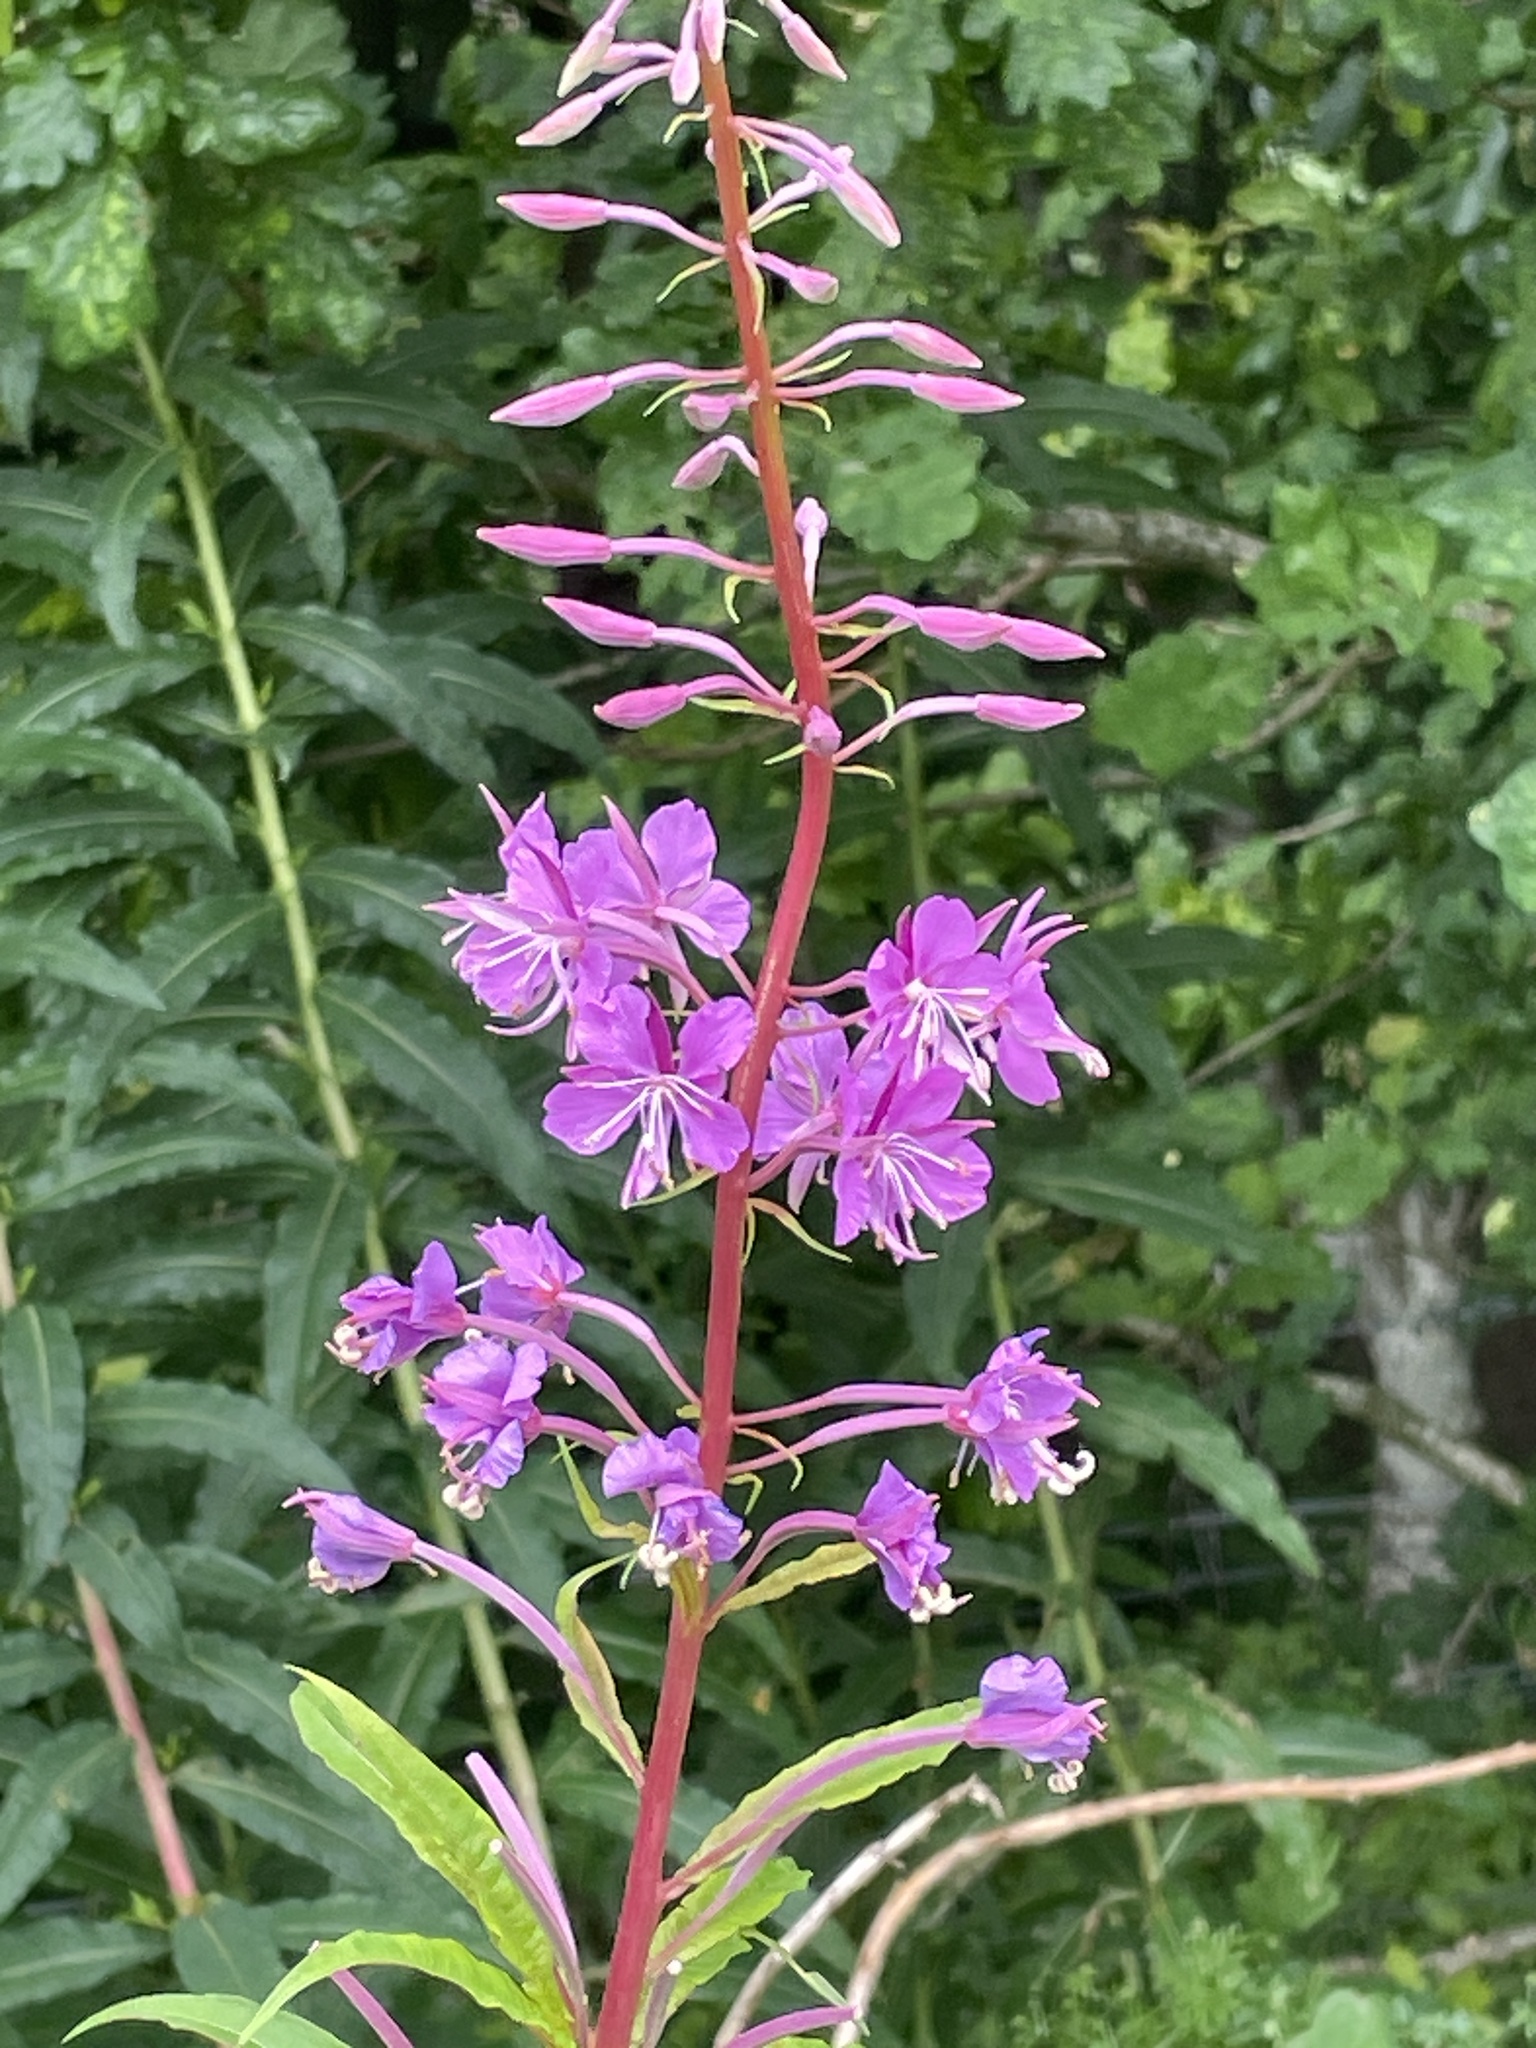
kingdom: Plantae
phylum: Tracheophyta
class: Magnoliopsida
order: Myrtales
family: Onagraceae
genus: Chamaenerion
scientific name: Chamaenerion angustifolium
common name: Fireweed
